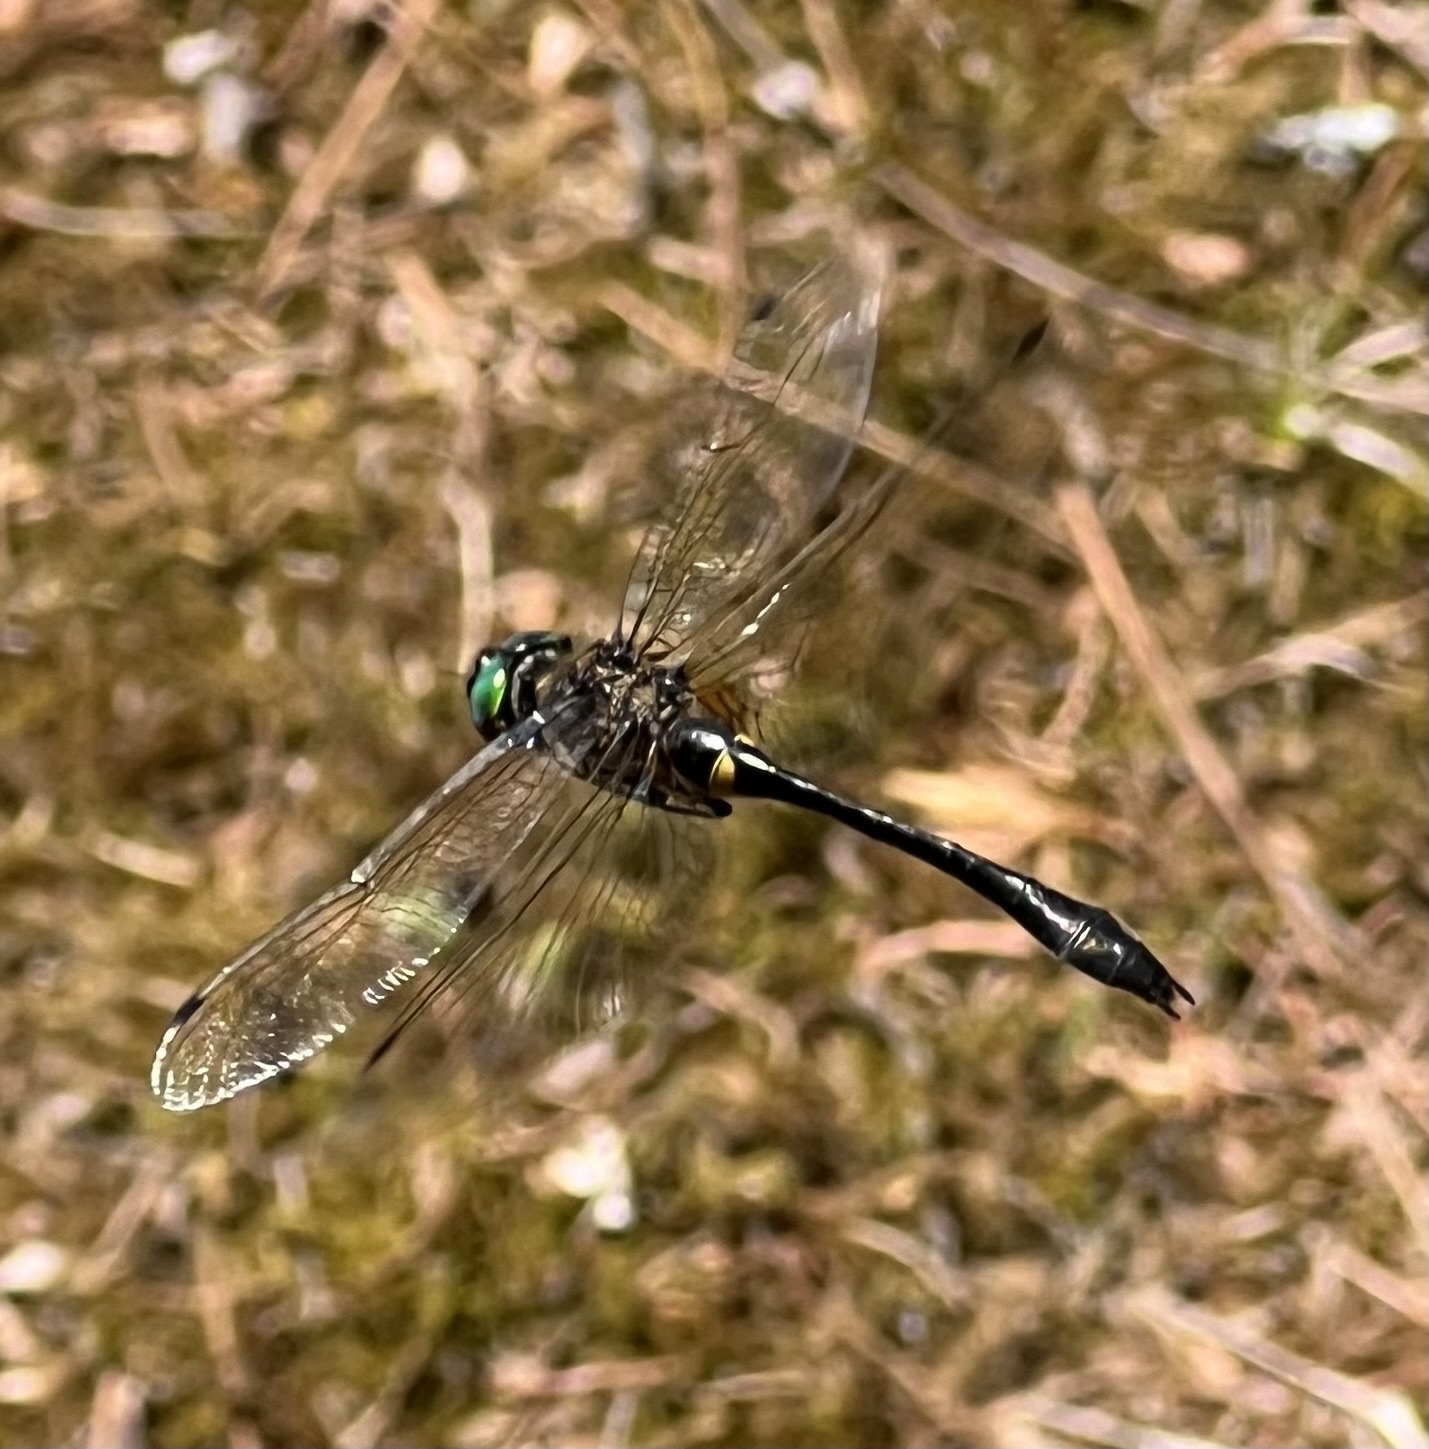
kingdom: Animalia
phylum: Arthropoda
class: Insecta
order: Odonata
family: Corduliidae
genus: Dorocordulia
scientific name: Dorocordulia libera
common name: Racket-tailed emerald
